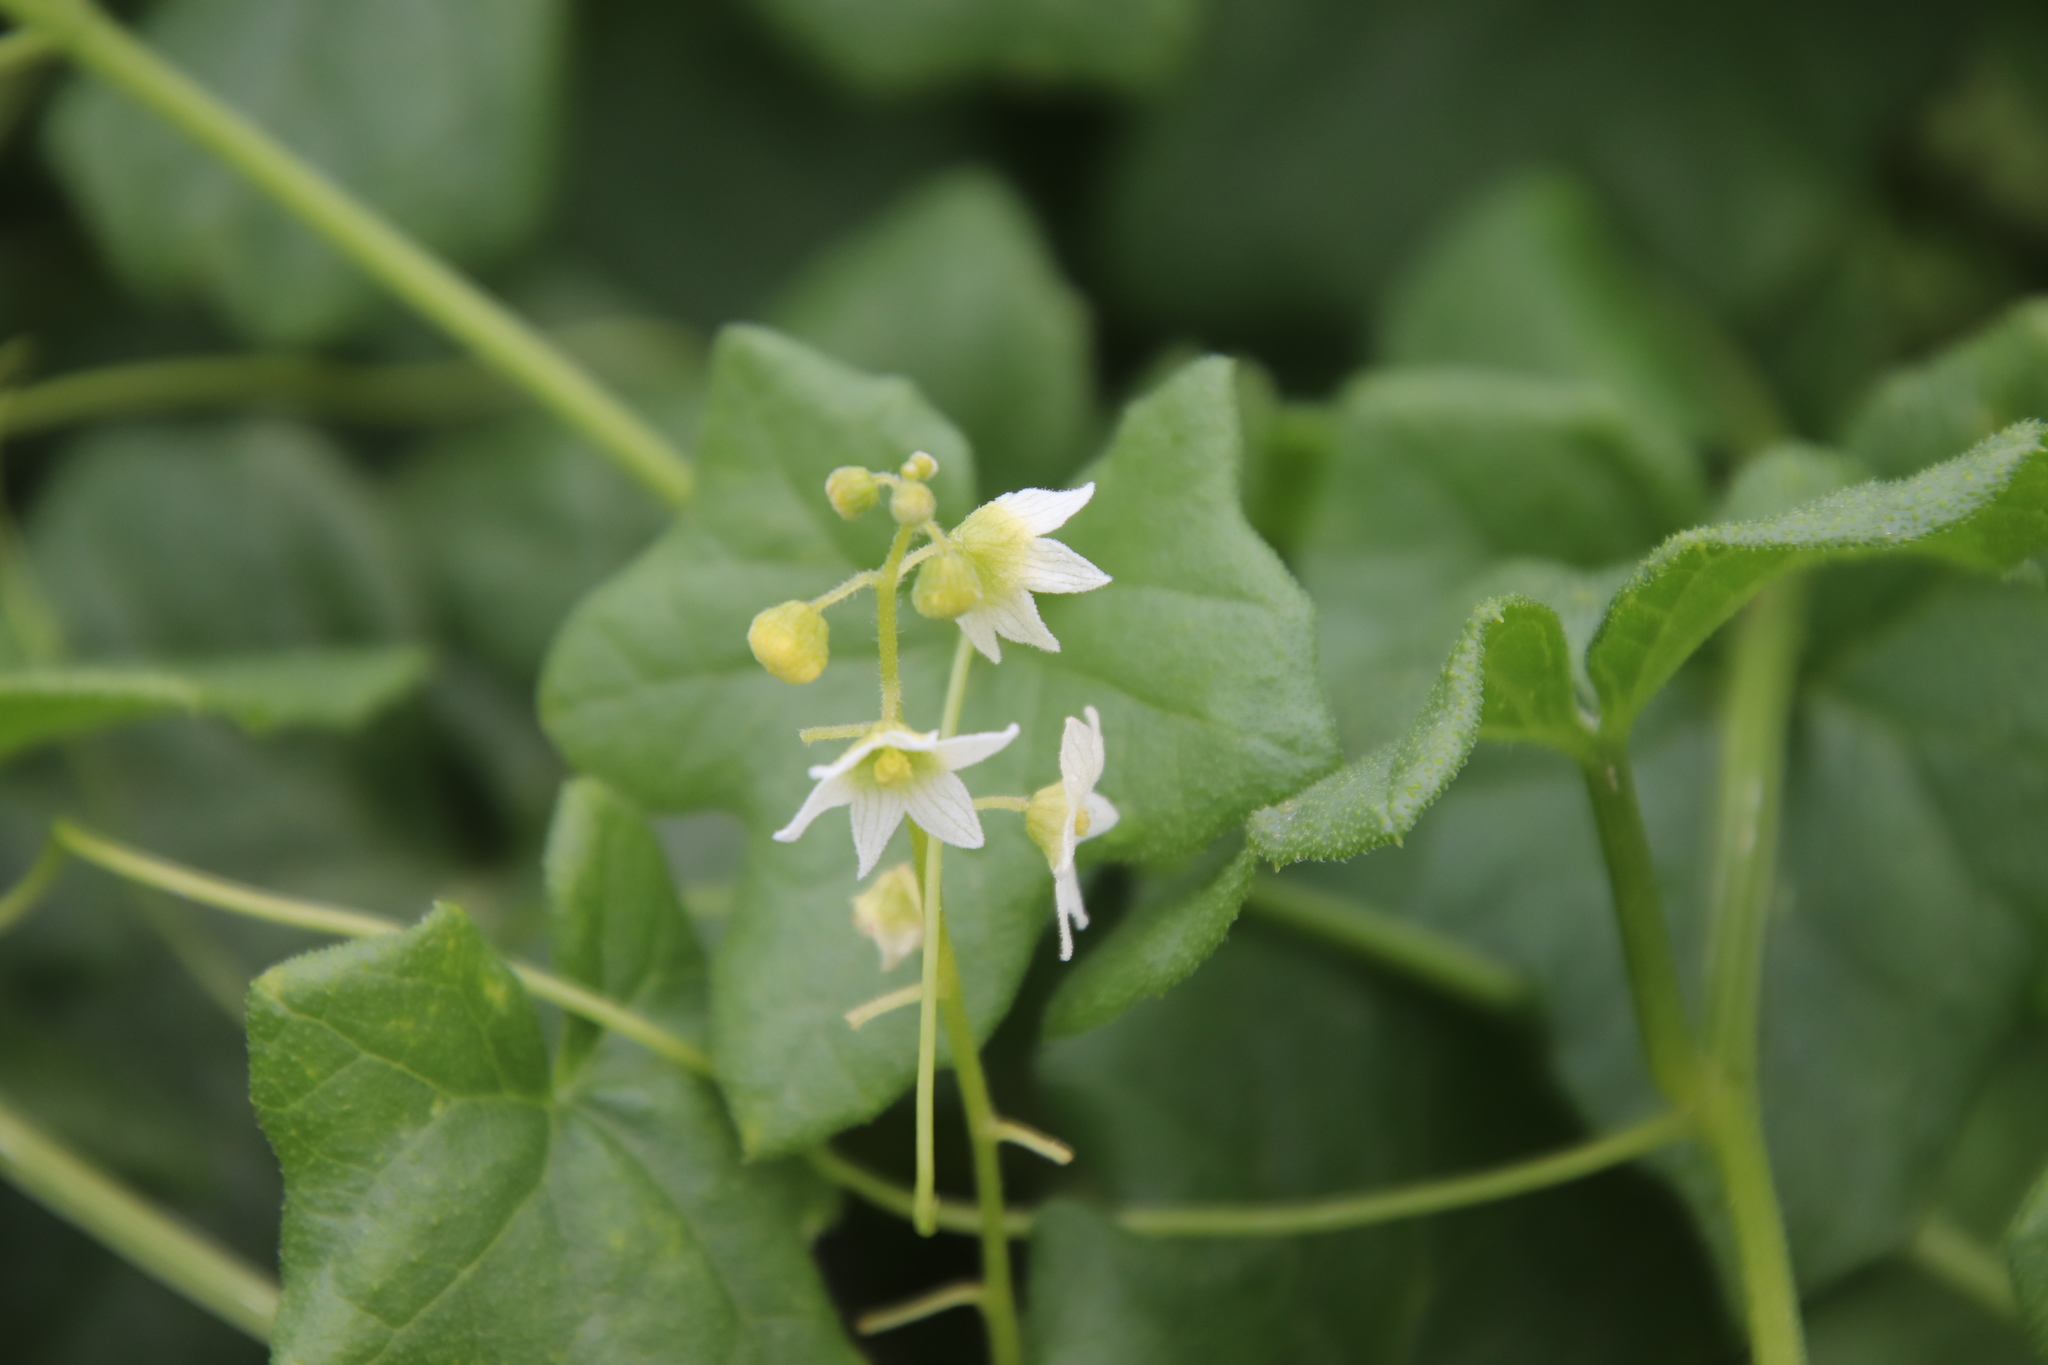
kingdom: Plantae
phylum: Tracheophyta
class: Magnoliopsida
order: Cucurbitales
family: Cucurbitaceae
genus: Marah
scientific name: Marah macrocarpa
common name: Cucamonga manroot
